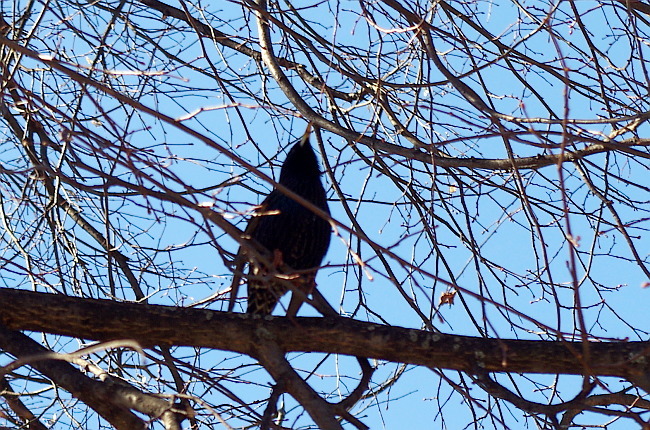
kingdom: Animalia
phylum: Chordata
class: Aves
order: Passeriformes
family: Sturnidae
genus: Sturnus
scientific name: Sturnus vulgaris
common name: Common starling
